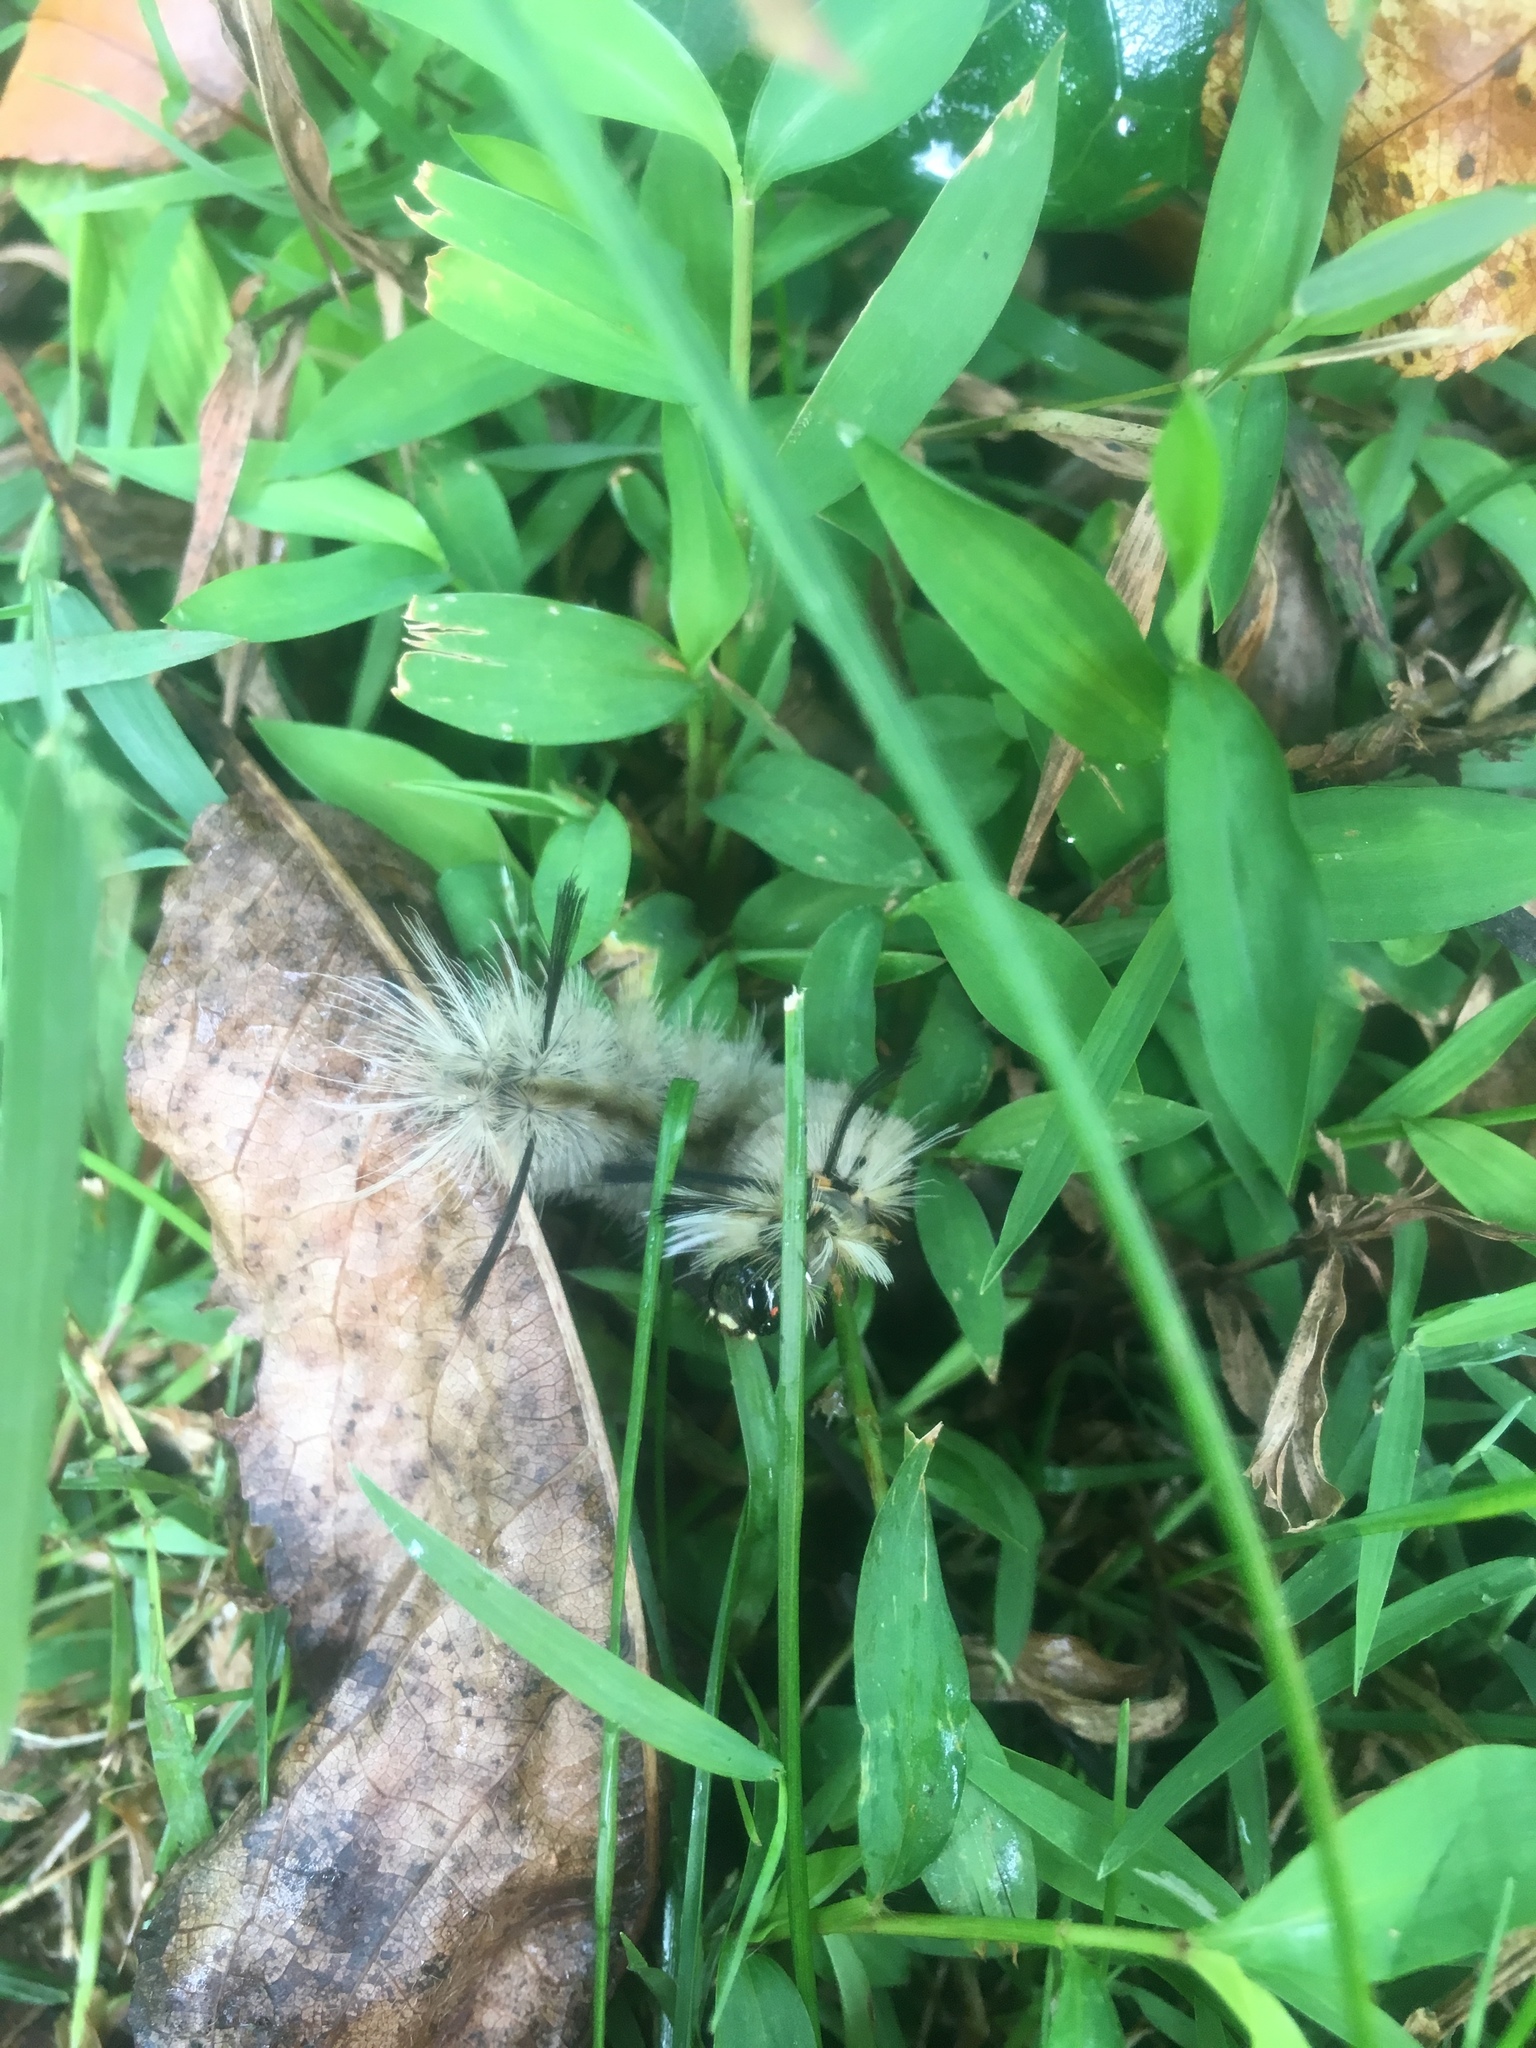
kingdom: Animalia
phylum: Arthropoda
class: Insecta
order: Lepidoptera
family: Erebidae
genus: Halysidota
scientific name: Halysidota tessellaris
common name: Banded tussock moth
